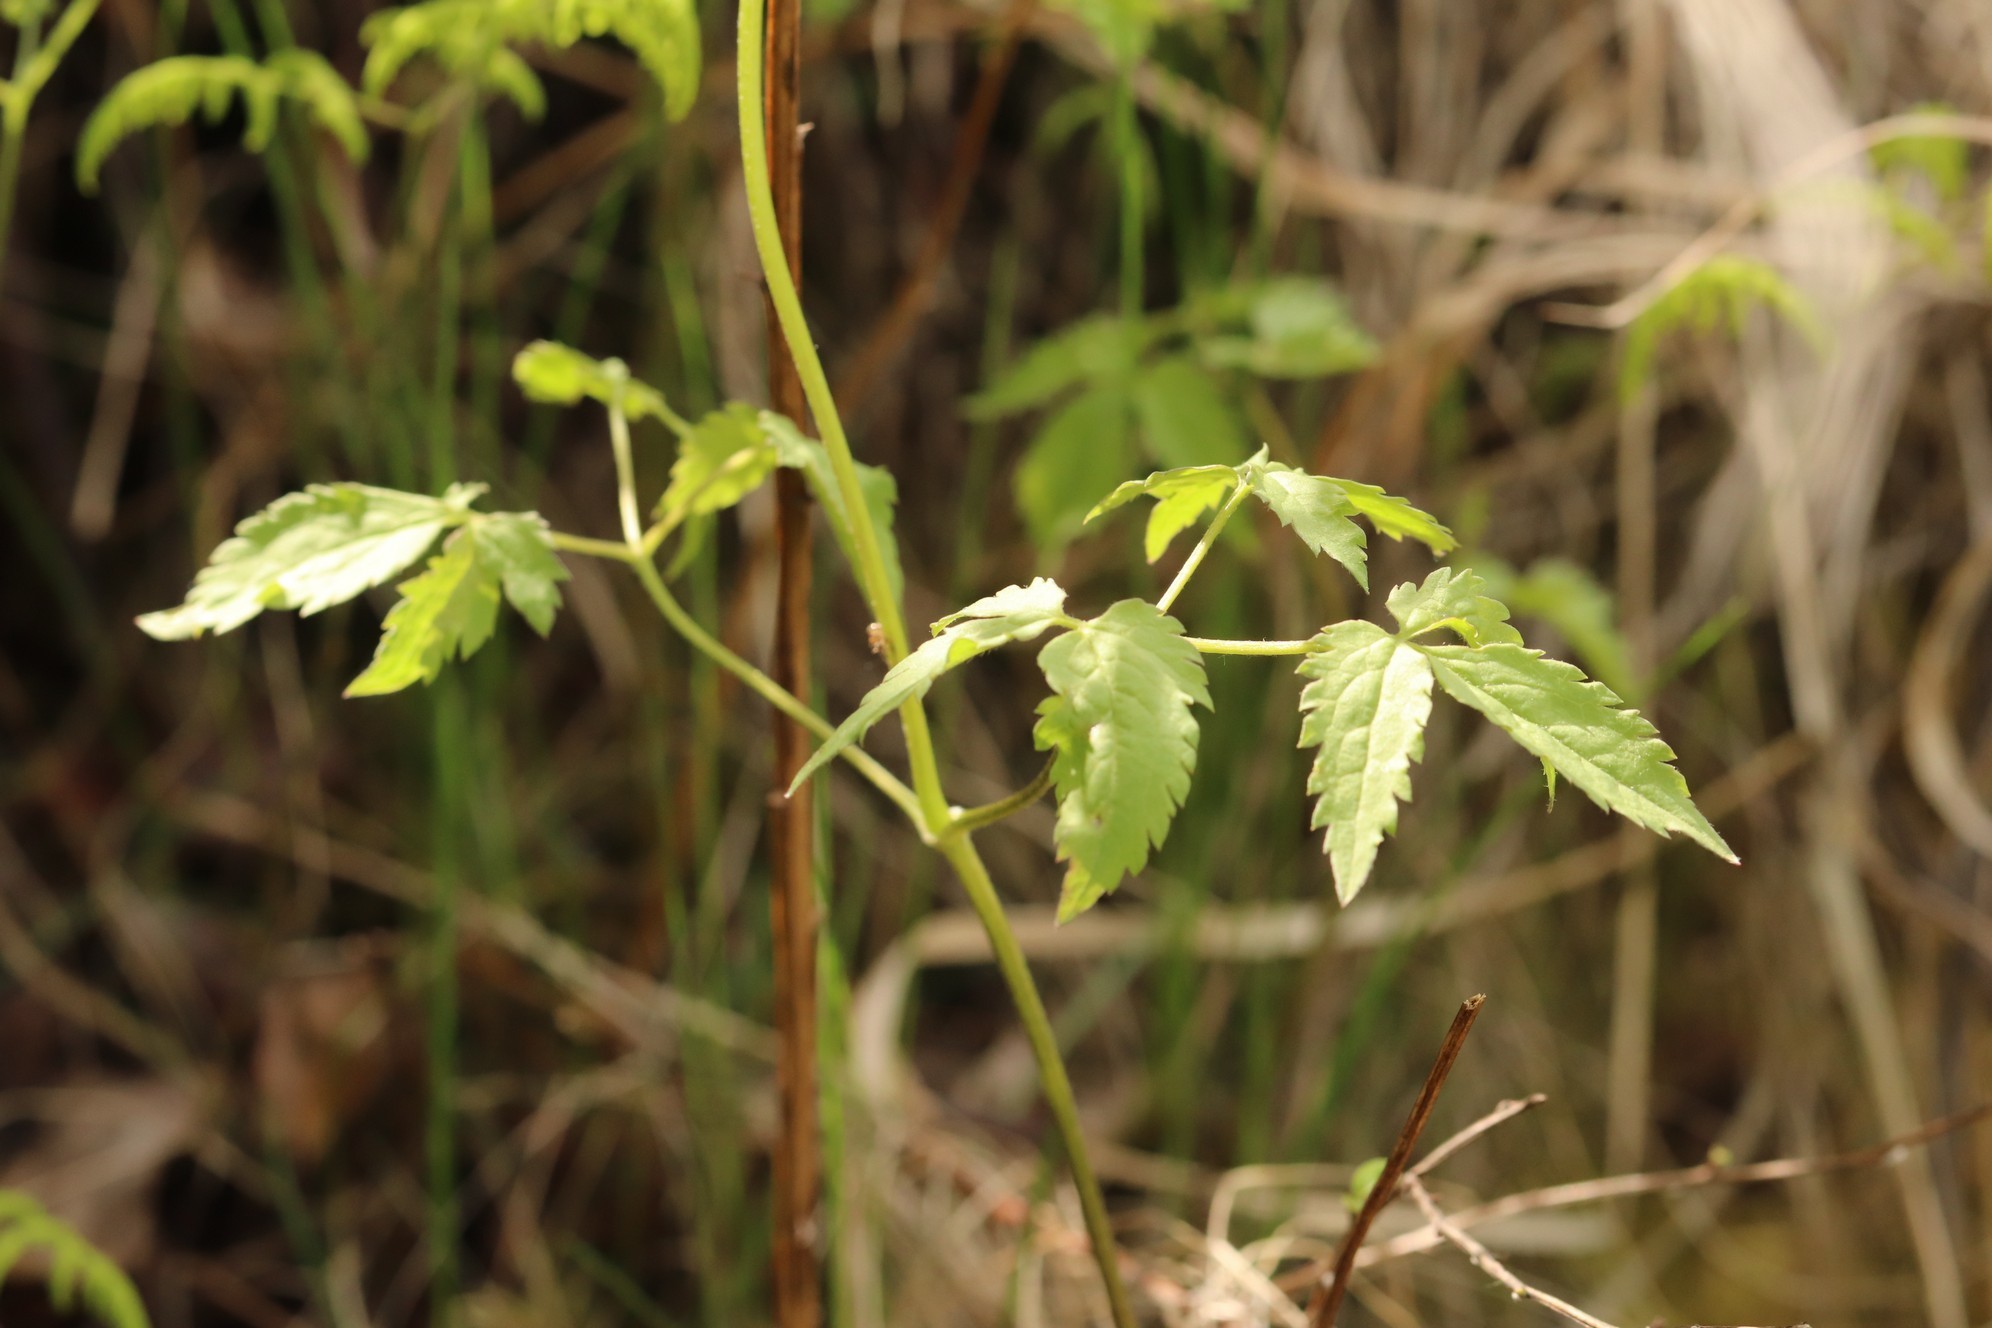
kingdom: Plantae
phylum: Tracheophyta
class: Magnoliopsida
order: Ranunculales
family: Ranunculaceae
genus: Clematis
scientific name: Clematis sibirica
